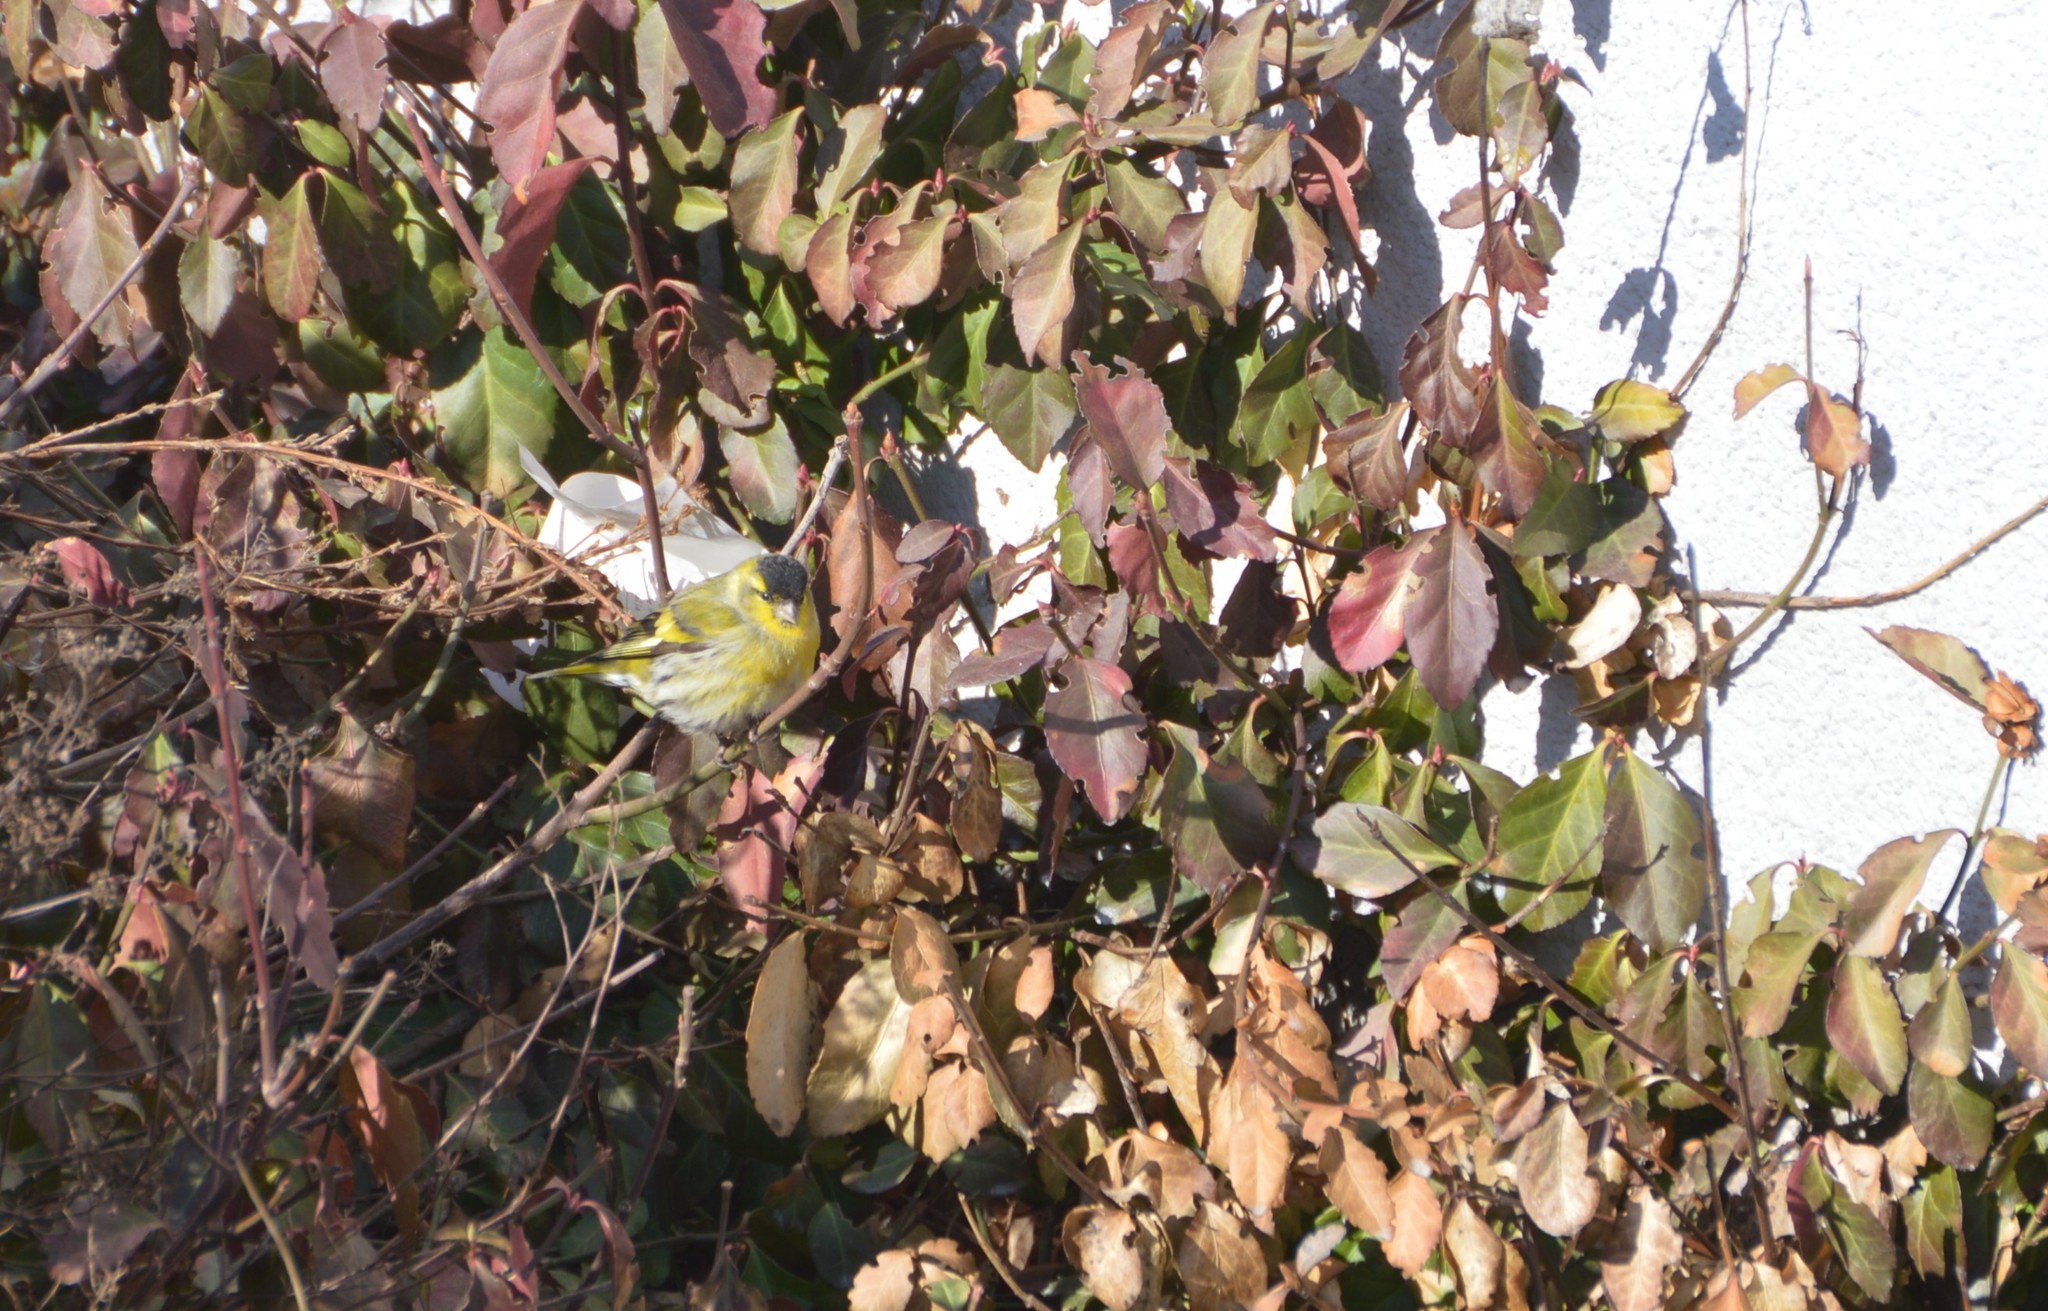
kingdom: Animalia
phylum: Chordata
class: Aves
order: Passeriformes
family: Fringillidae
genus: Spinus
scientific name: Spinus spinus
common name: Eurasian siskin
